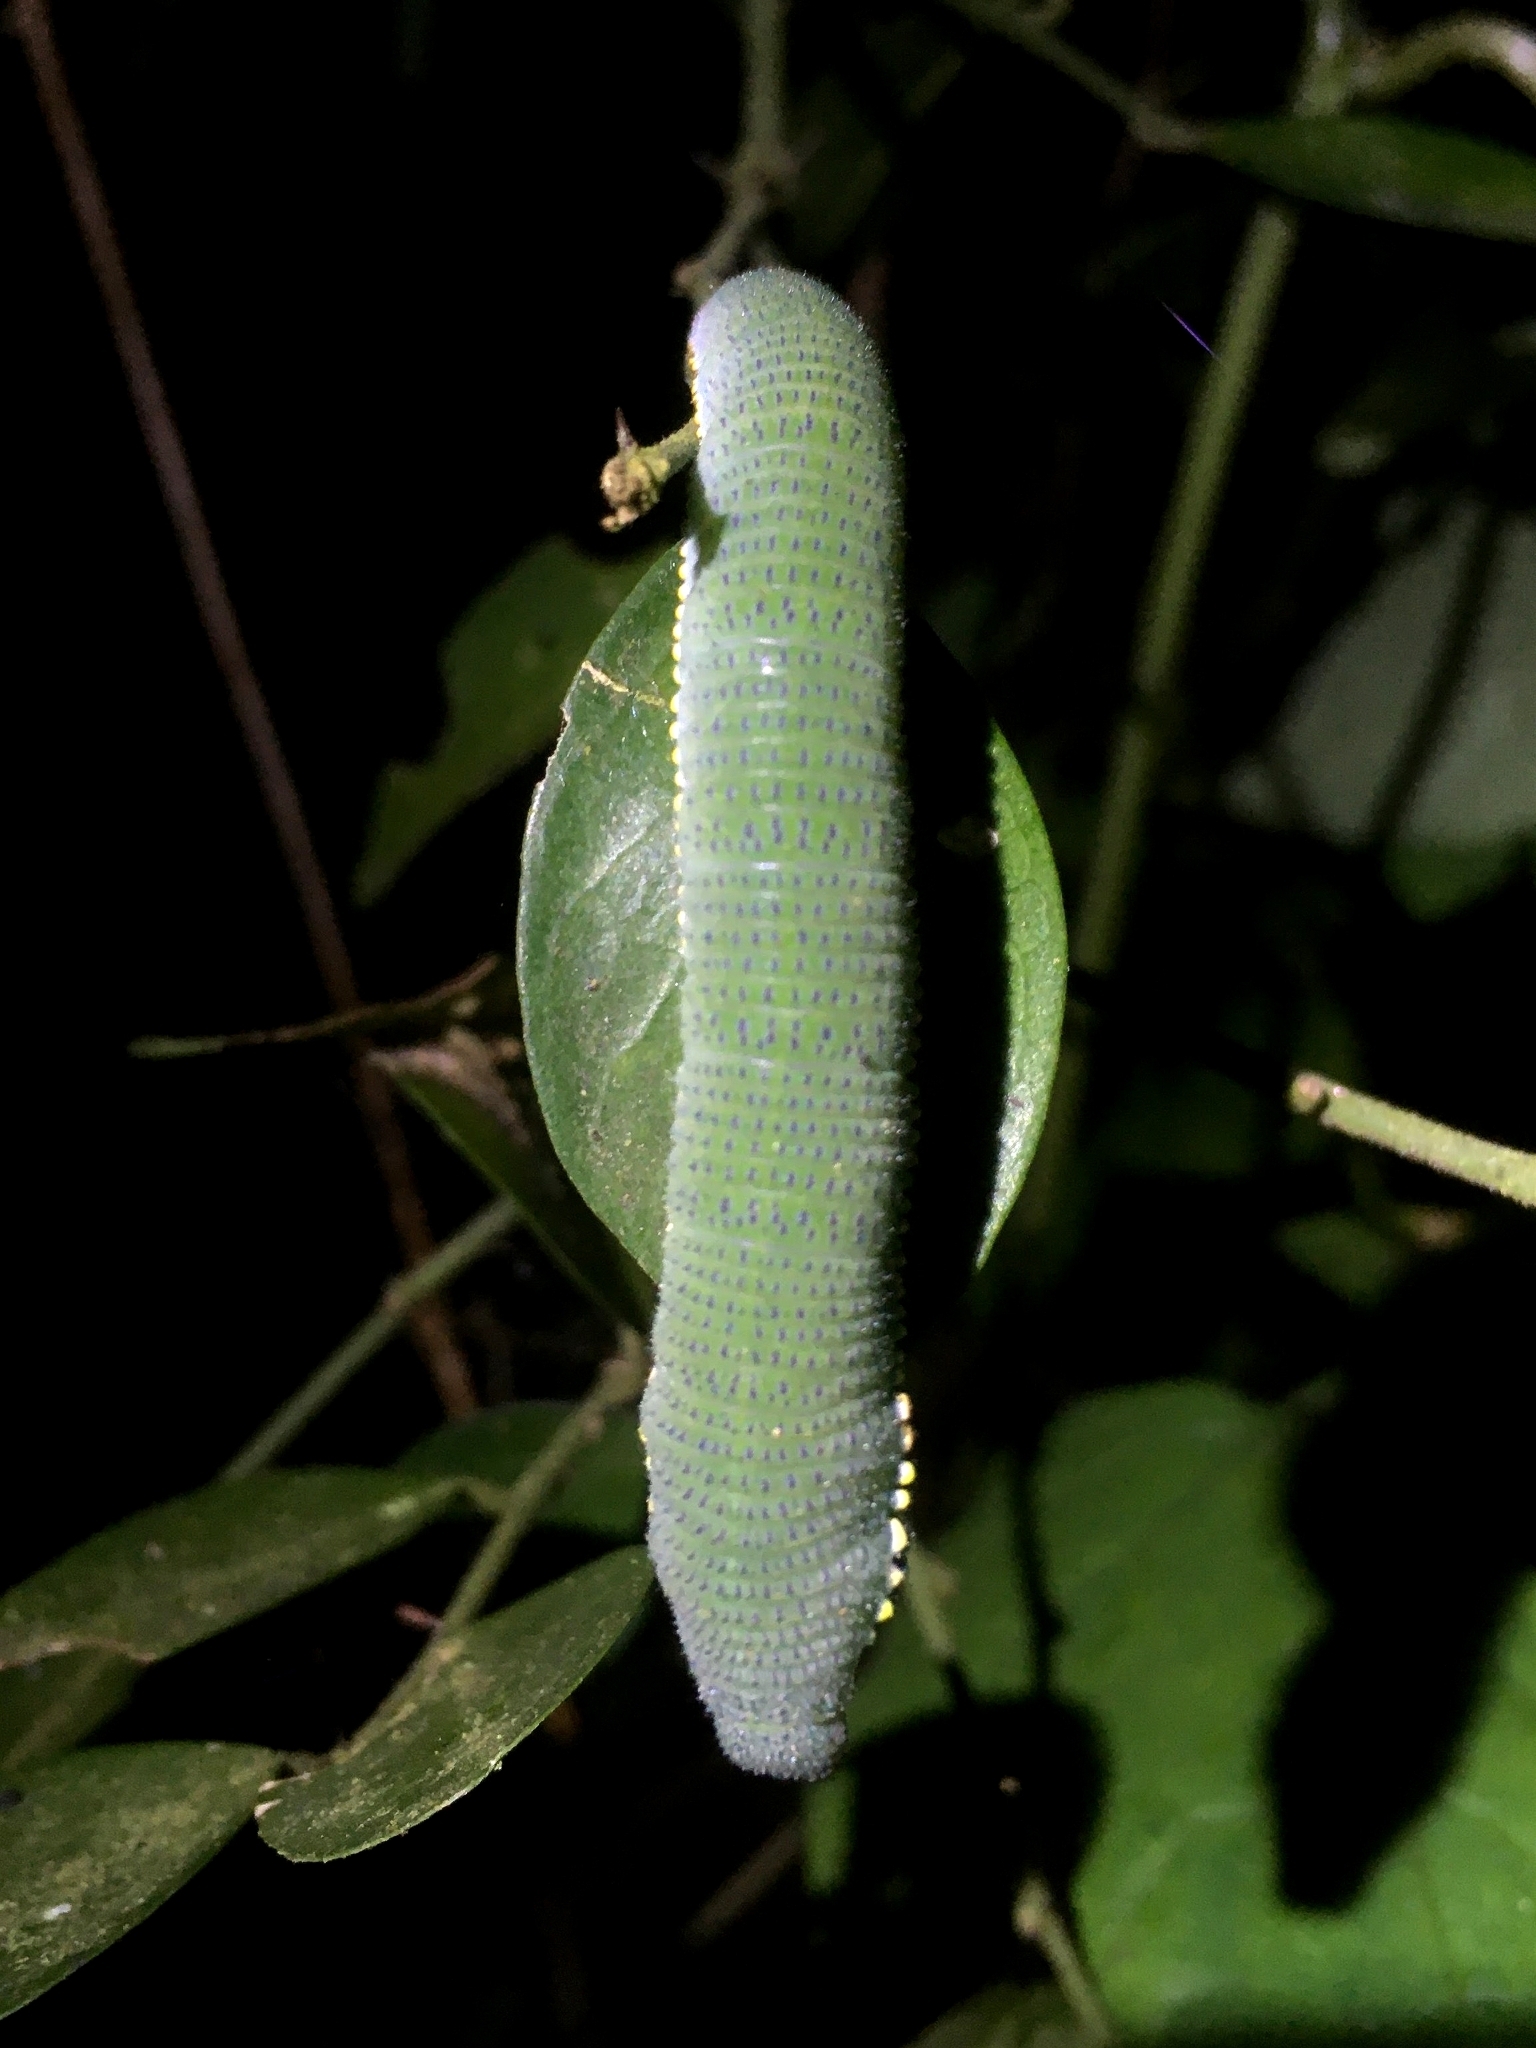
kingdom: Animalia
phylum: Arthropoda
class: Insecta
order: Lepidoptera
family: Pieridae
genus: Hebomoia
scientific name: Hebomoia glaucippe
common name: Great orange tip
